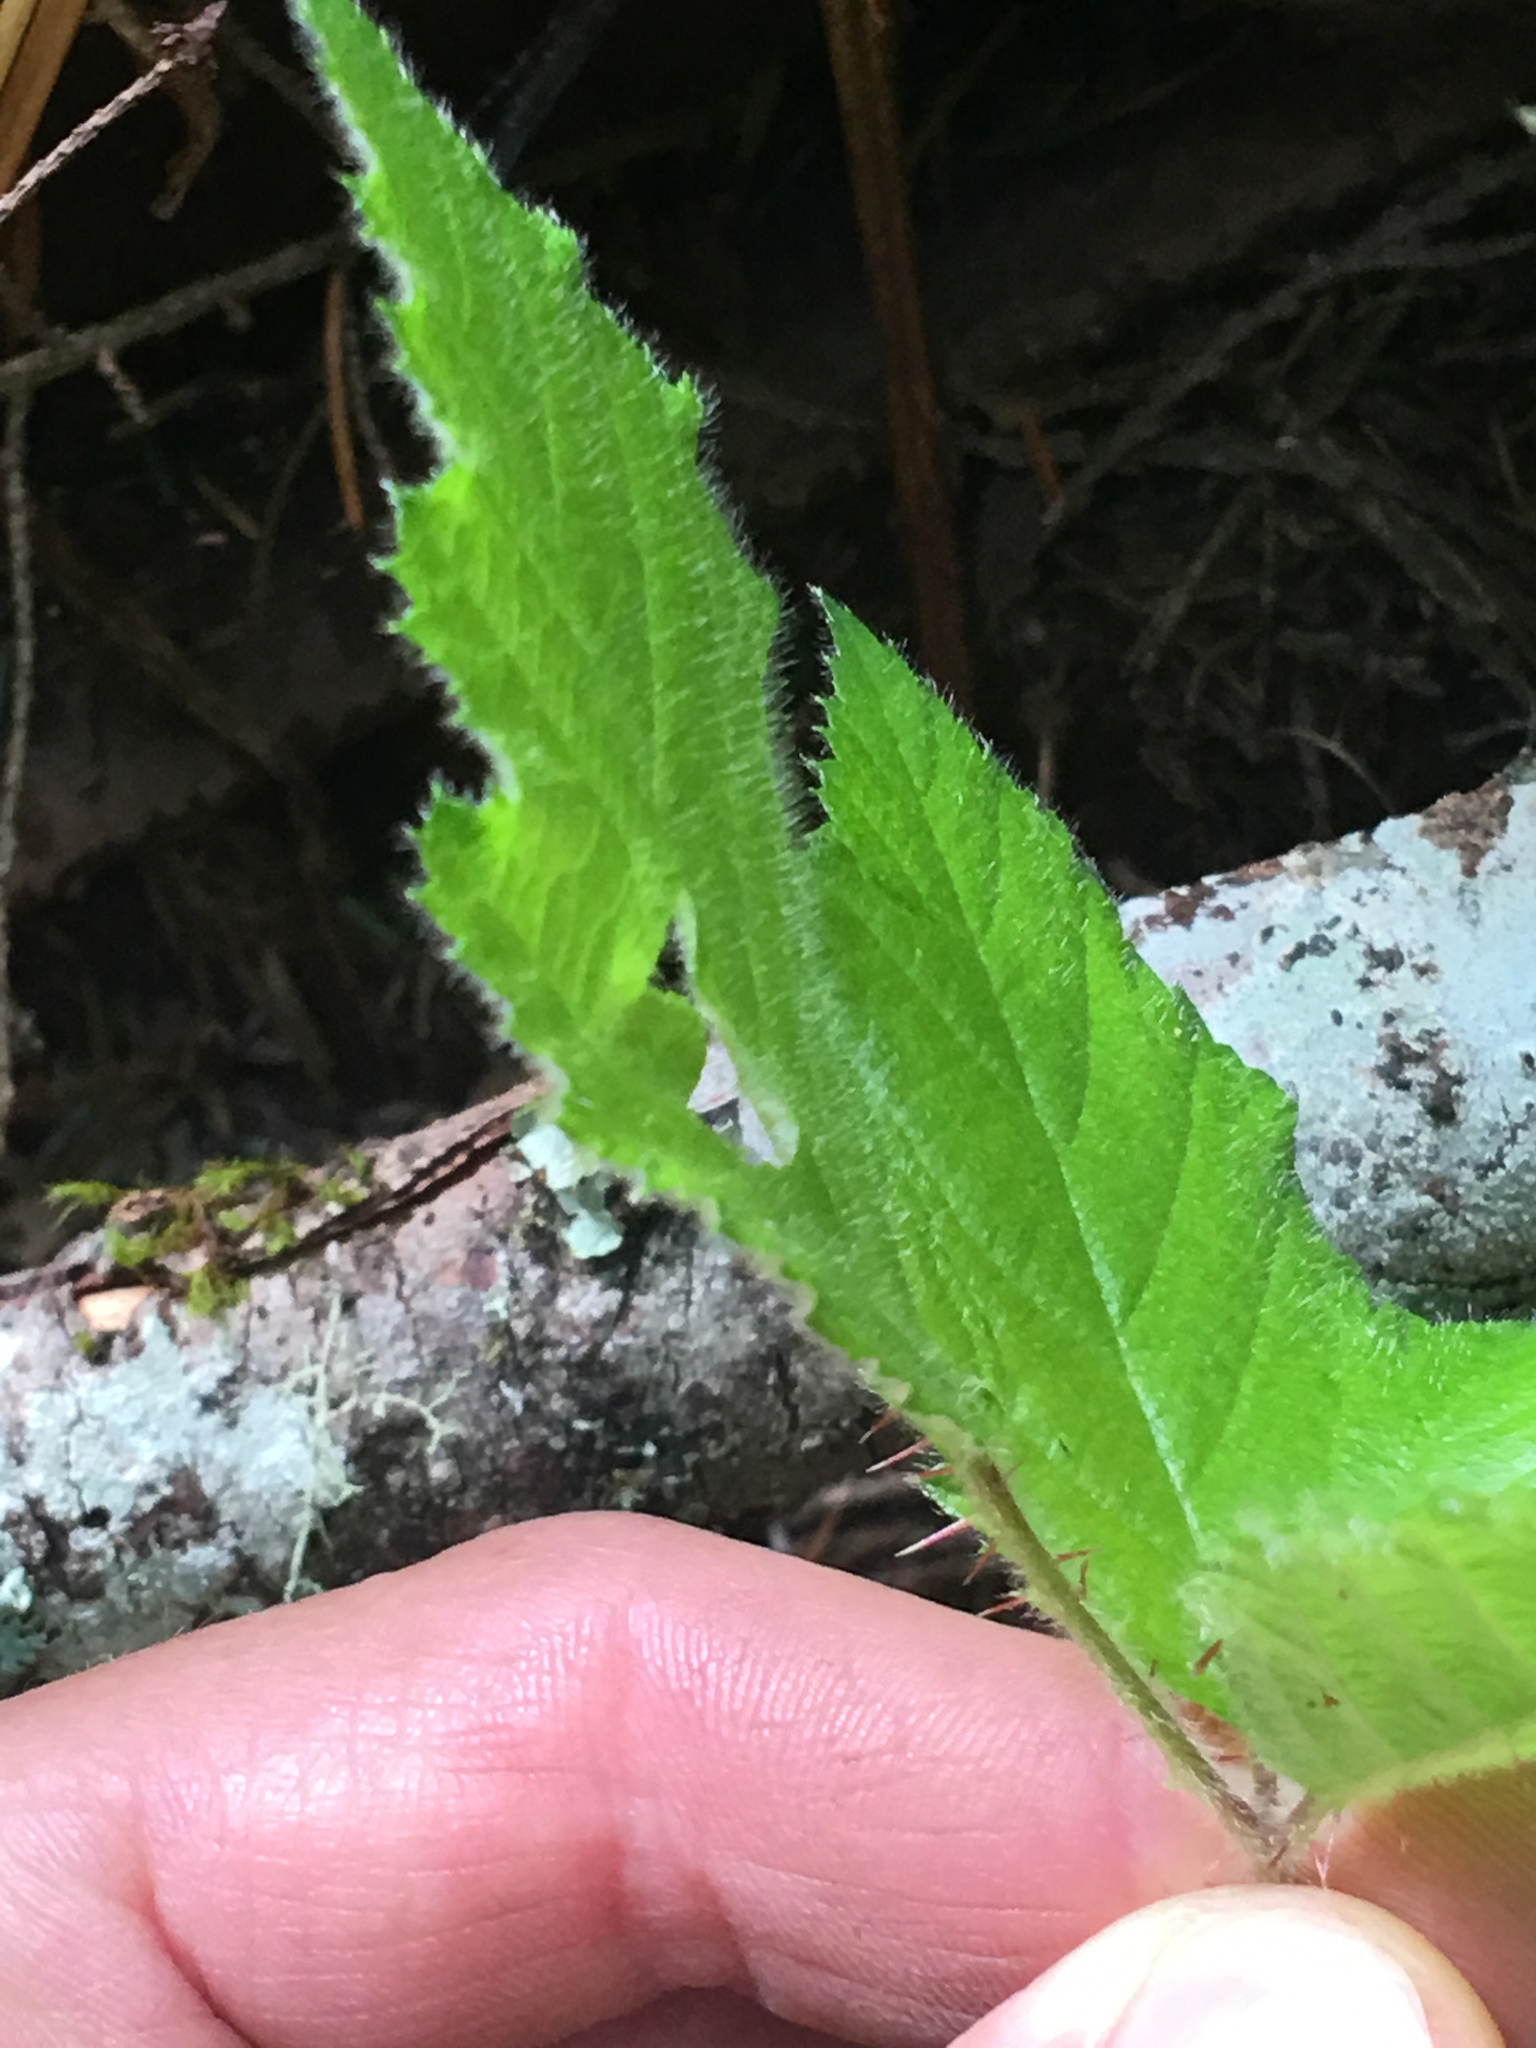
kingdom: Plantae
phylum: Tracheophyta
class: Magnoliopsida
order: Rosales
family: Rosaceae
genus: Rubus
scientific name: Rubus vestitus
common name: European blackberry
